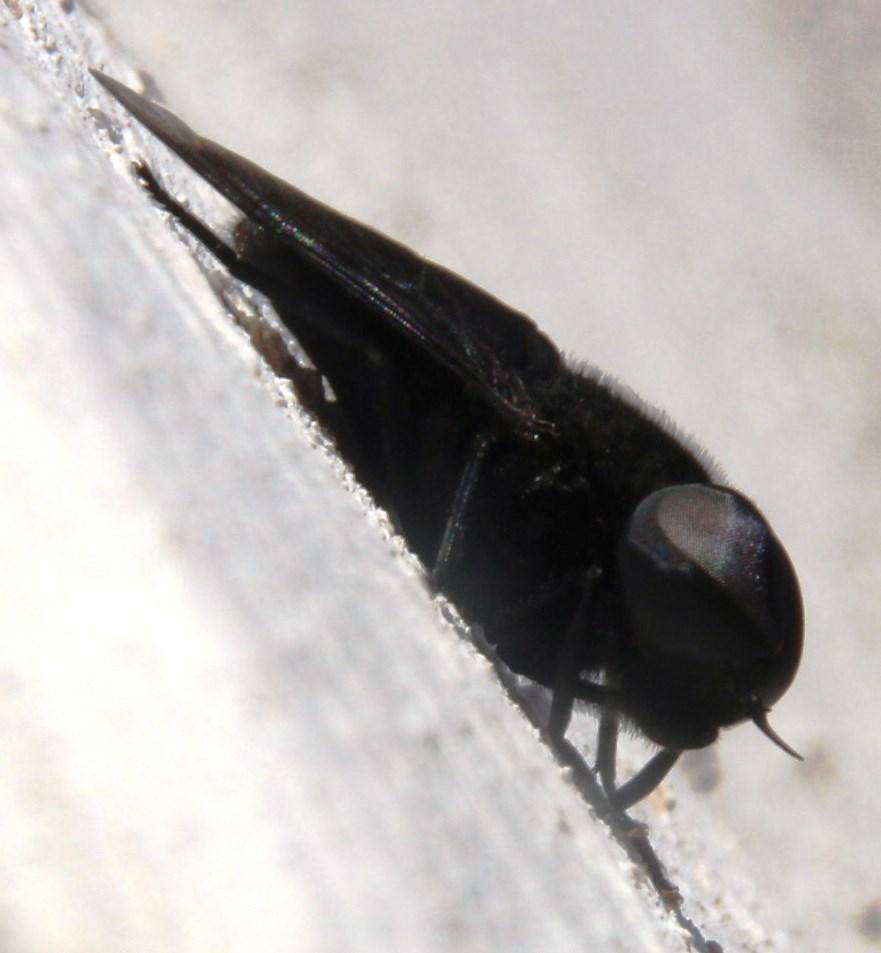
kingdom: Animalia
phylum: Arthropoda
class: Insecta
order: Diptera
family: Tabanidae
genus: Tabanus
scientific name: Tabanus biguttatus
